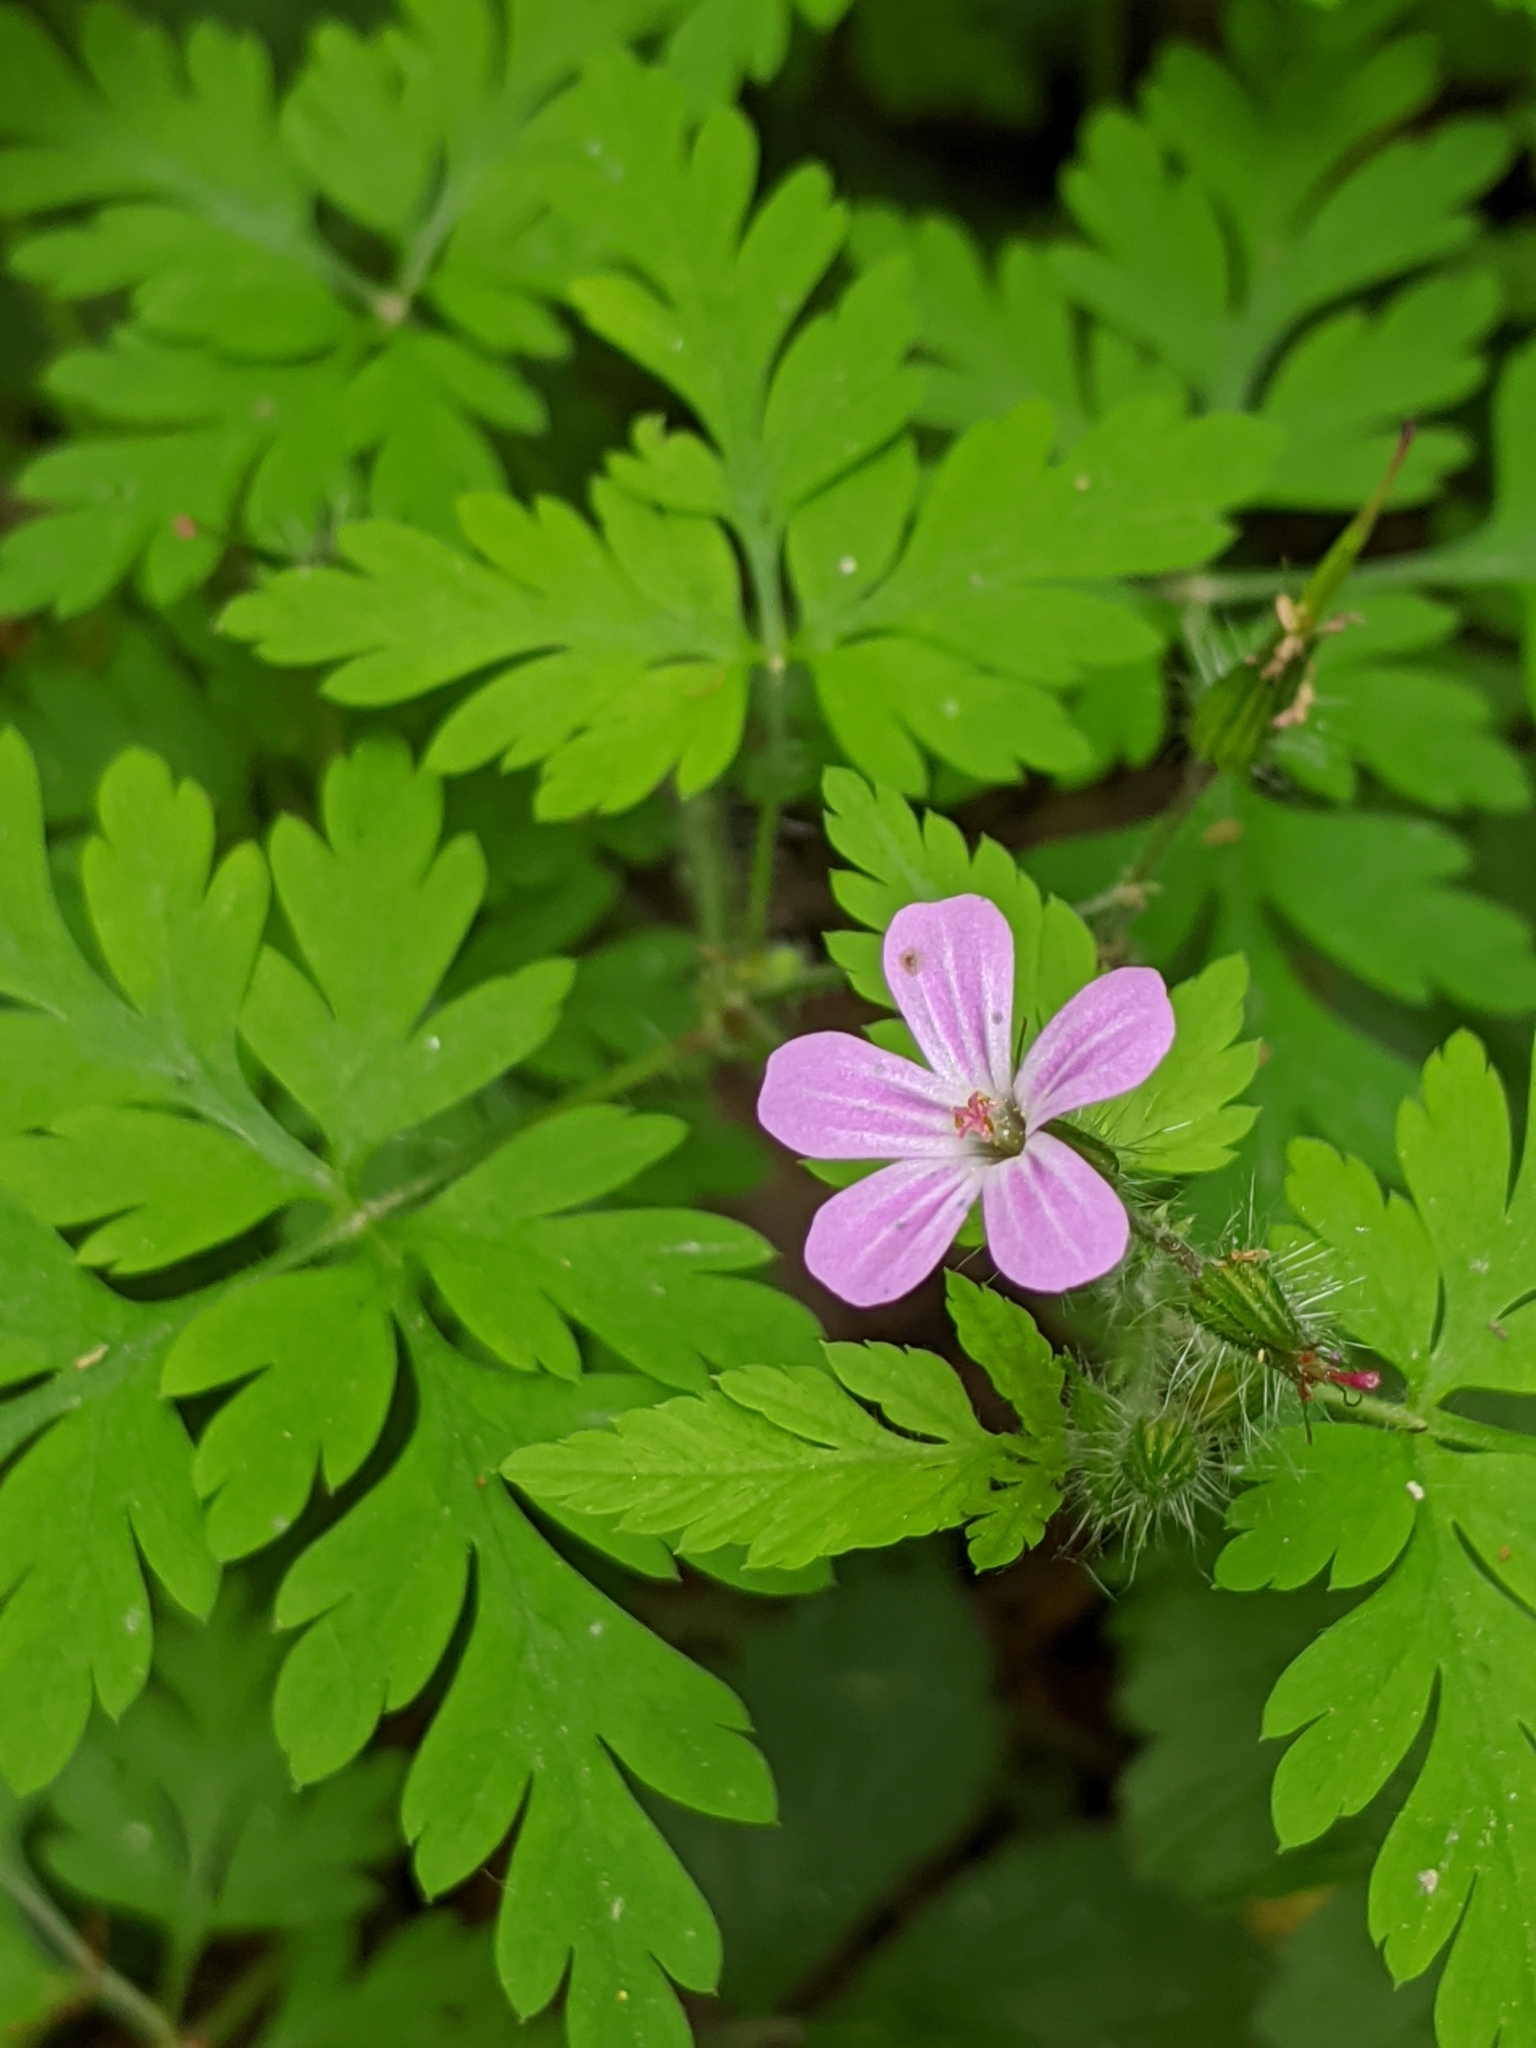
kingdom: Plantae
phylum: Tracheophyta
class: Magnoliopsida
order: Geraniales
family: Geraniaceae
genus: Geranium
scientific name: Geranium robertianum
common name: Herb-robert
